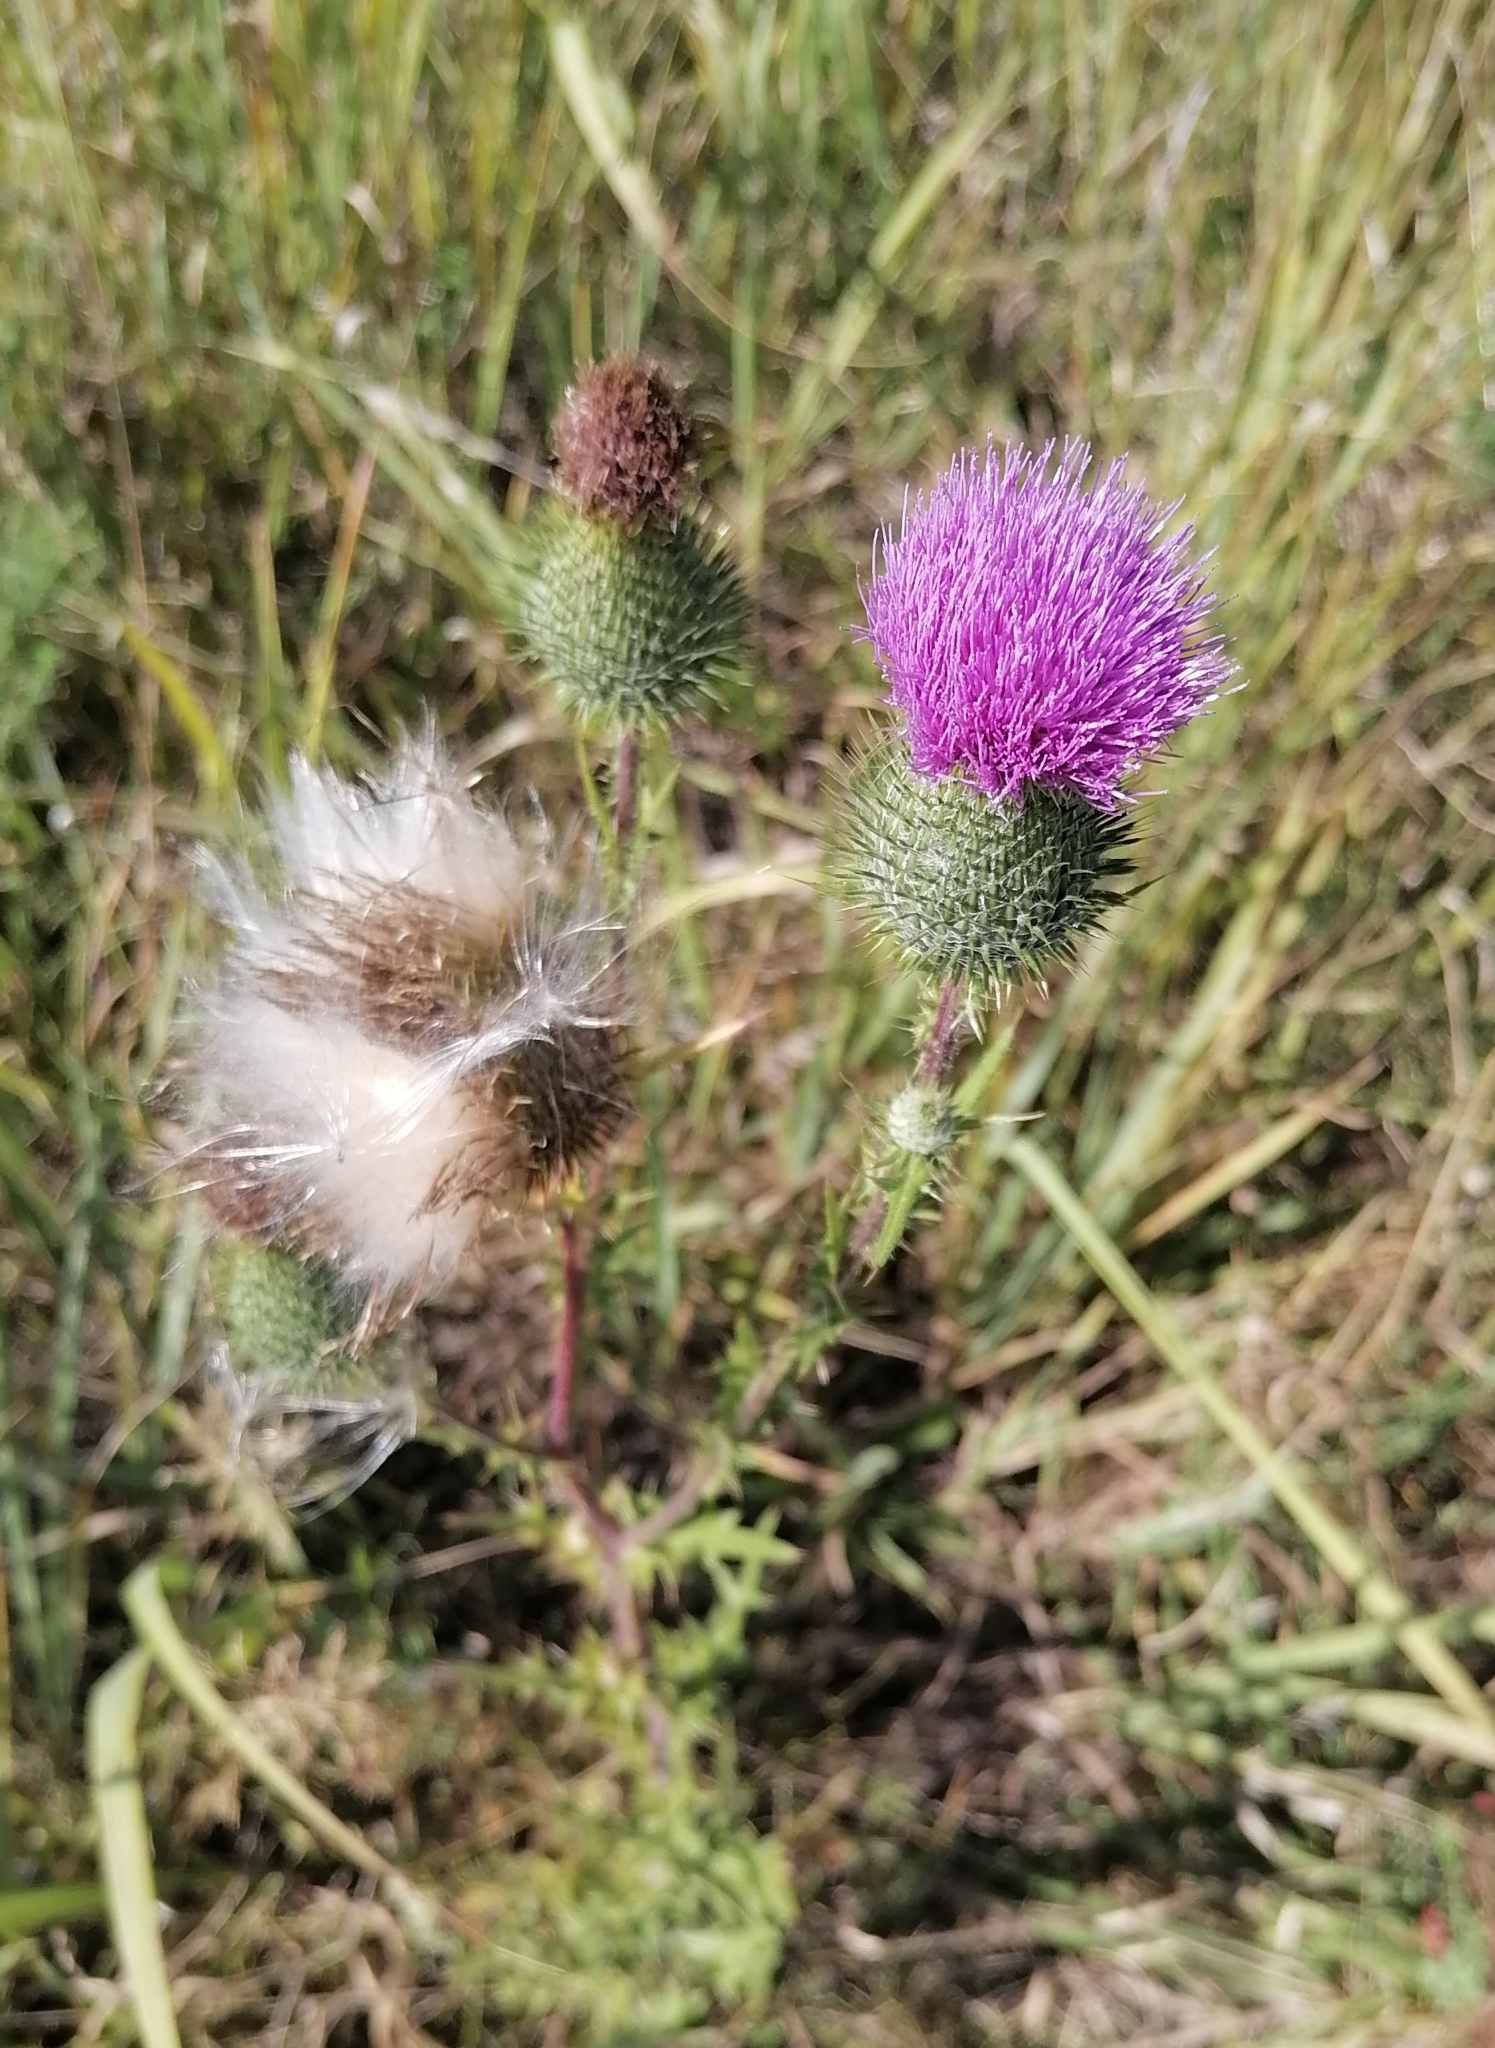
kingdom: Plantae
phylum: Tracheophyta
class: Magnoliopsida
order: Asterales
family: Asteraceae
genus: Cirsium
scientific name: Cirsium vulgare
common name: Bull thistle
